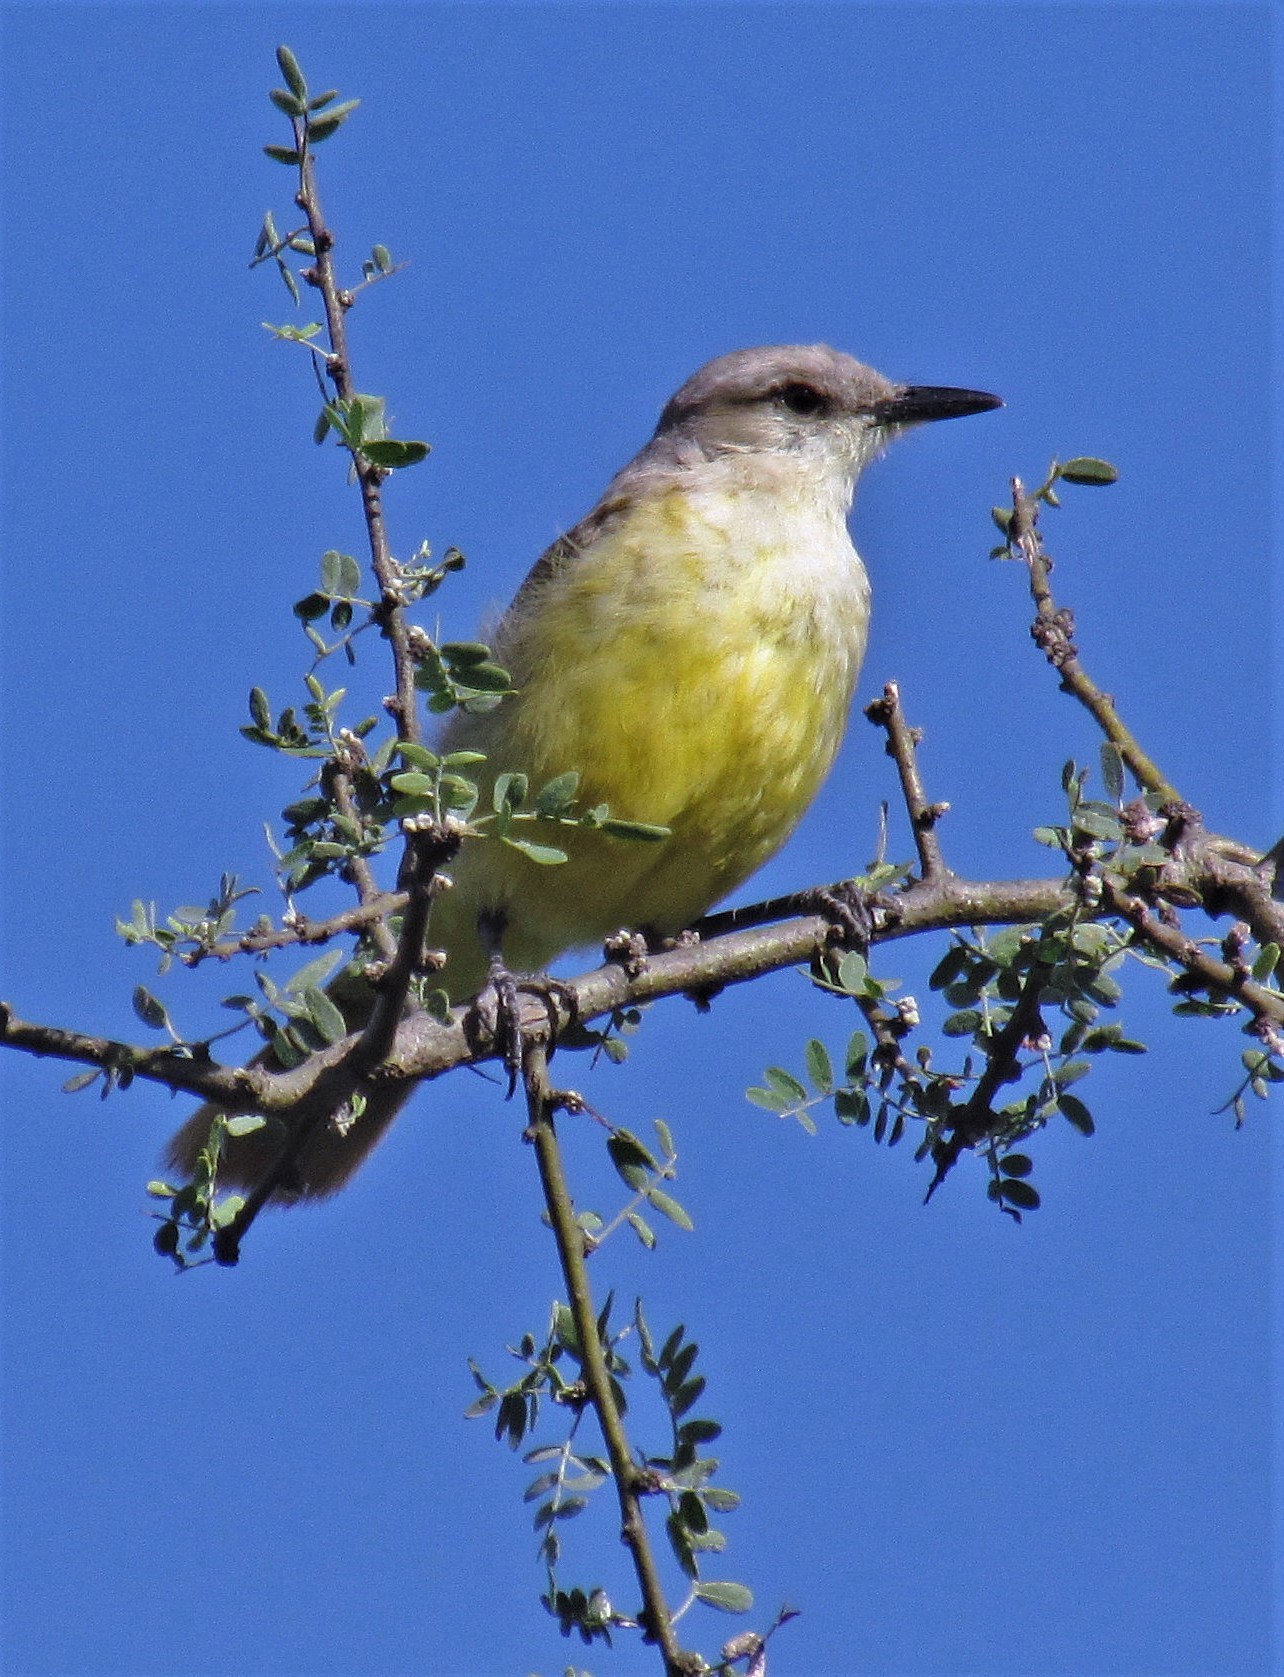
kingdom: Animalia
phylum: Chordata
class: Aves
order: Passeriformes
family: Tyrannidae
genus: Machetornis
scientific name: Machetornis rixosa
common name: Cattle tyrant
